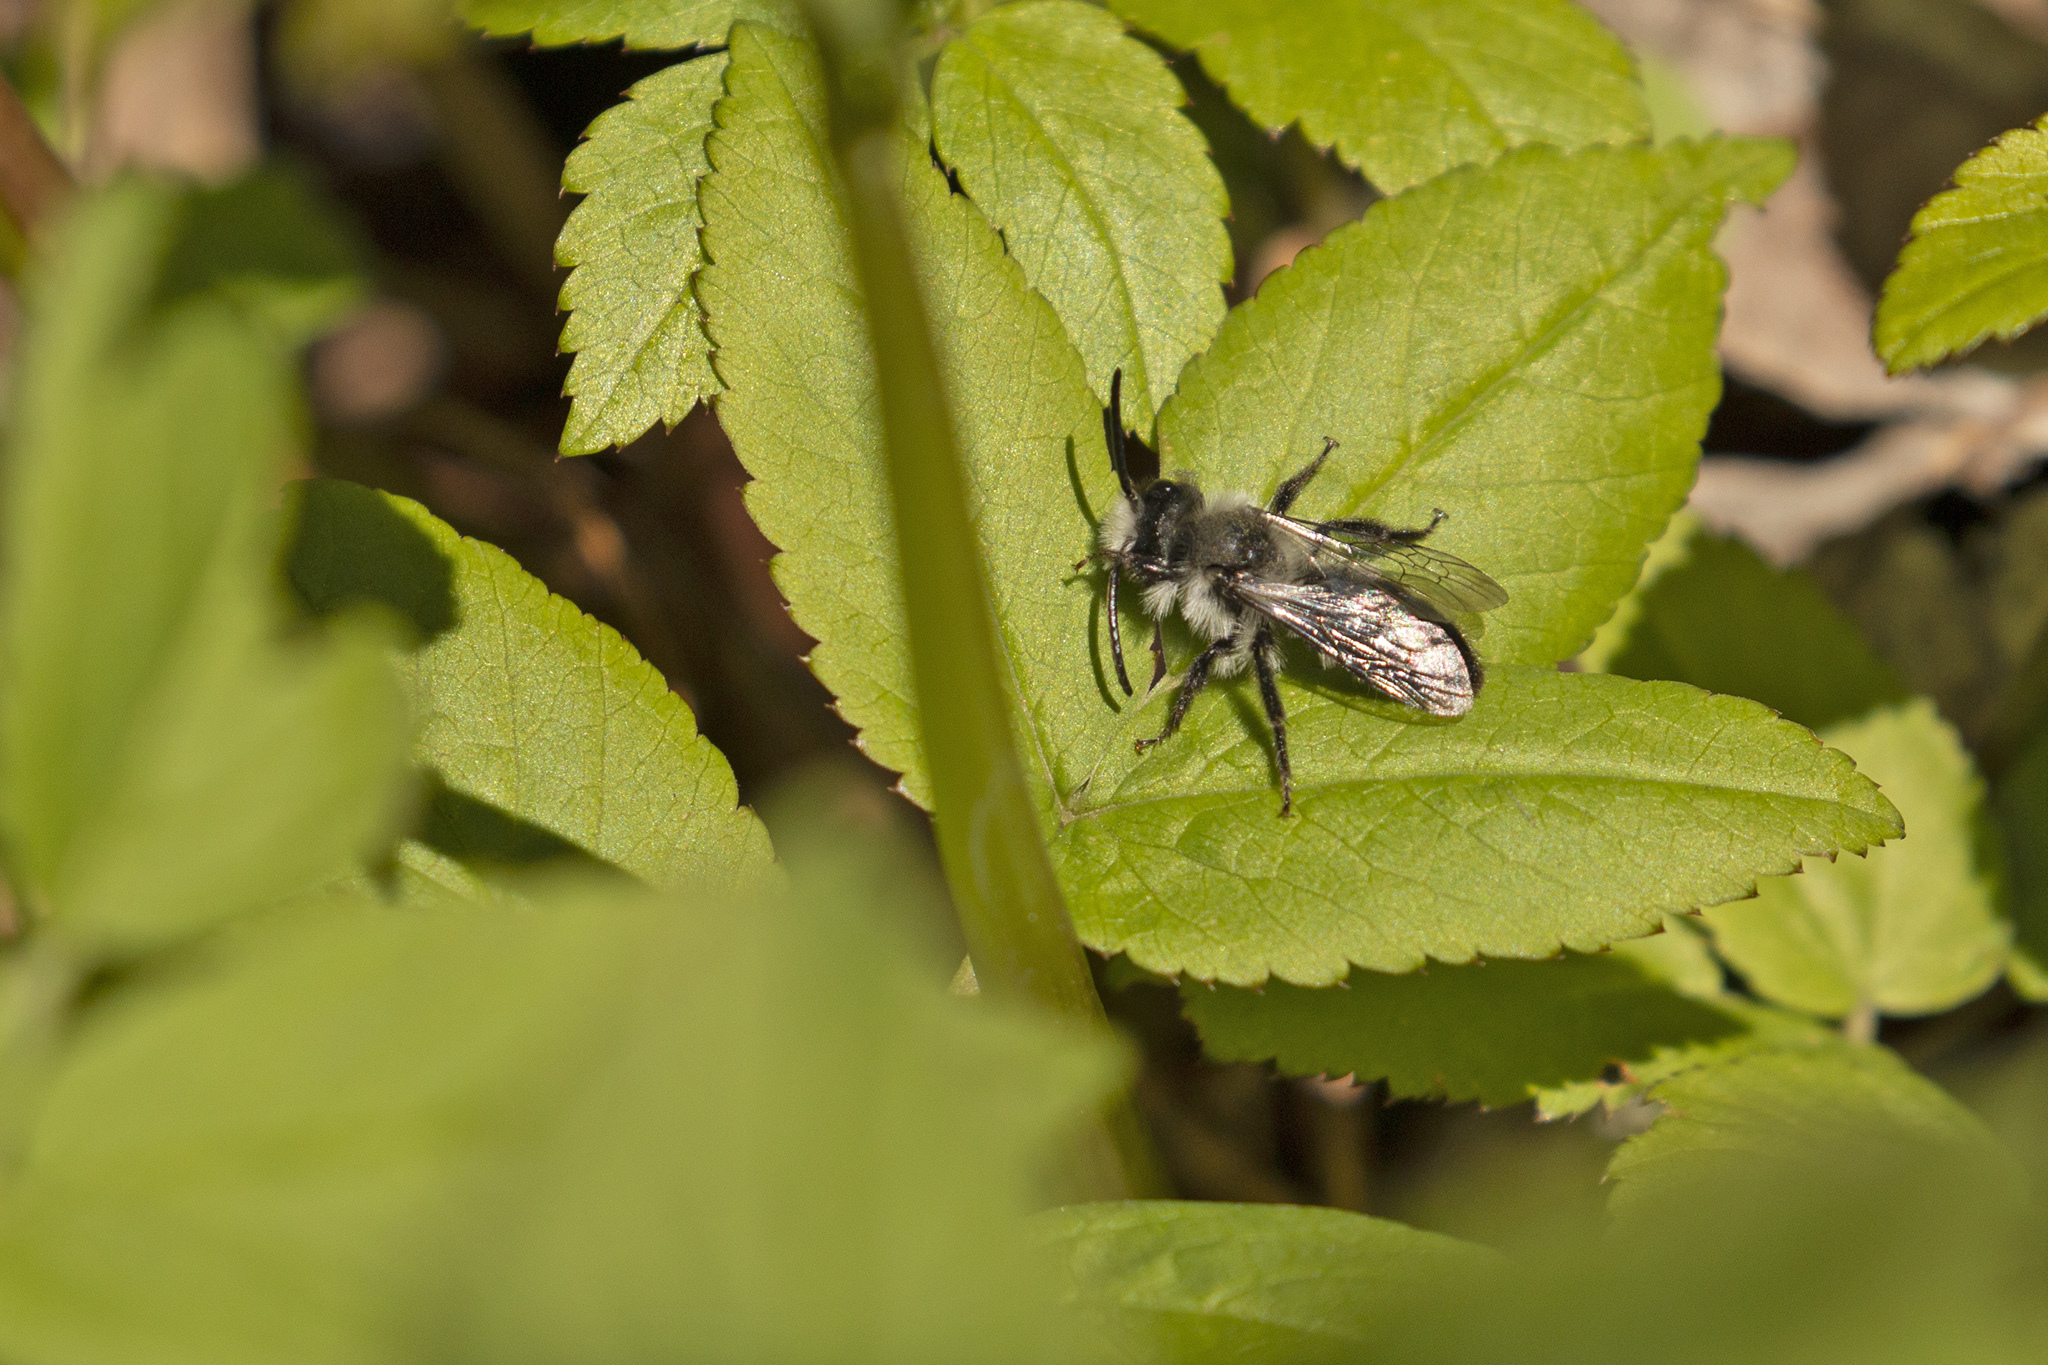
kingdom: Animalia
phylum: Arthropoda
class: Insecta
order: Hymenoptera
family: Andrenidae
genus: Andrena
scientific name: Andrena cineraria
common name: Ashy mining bee
